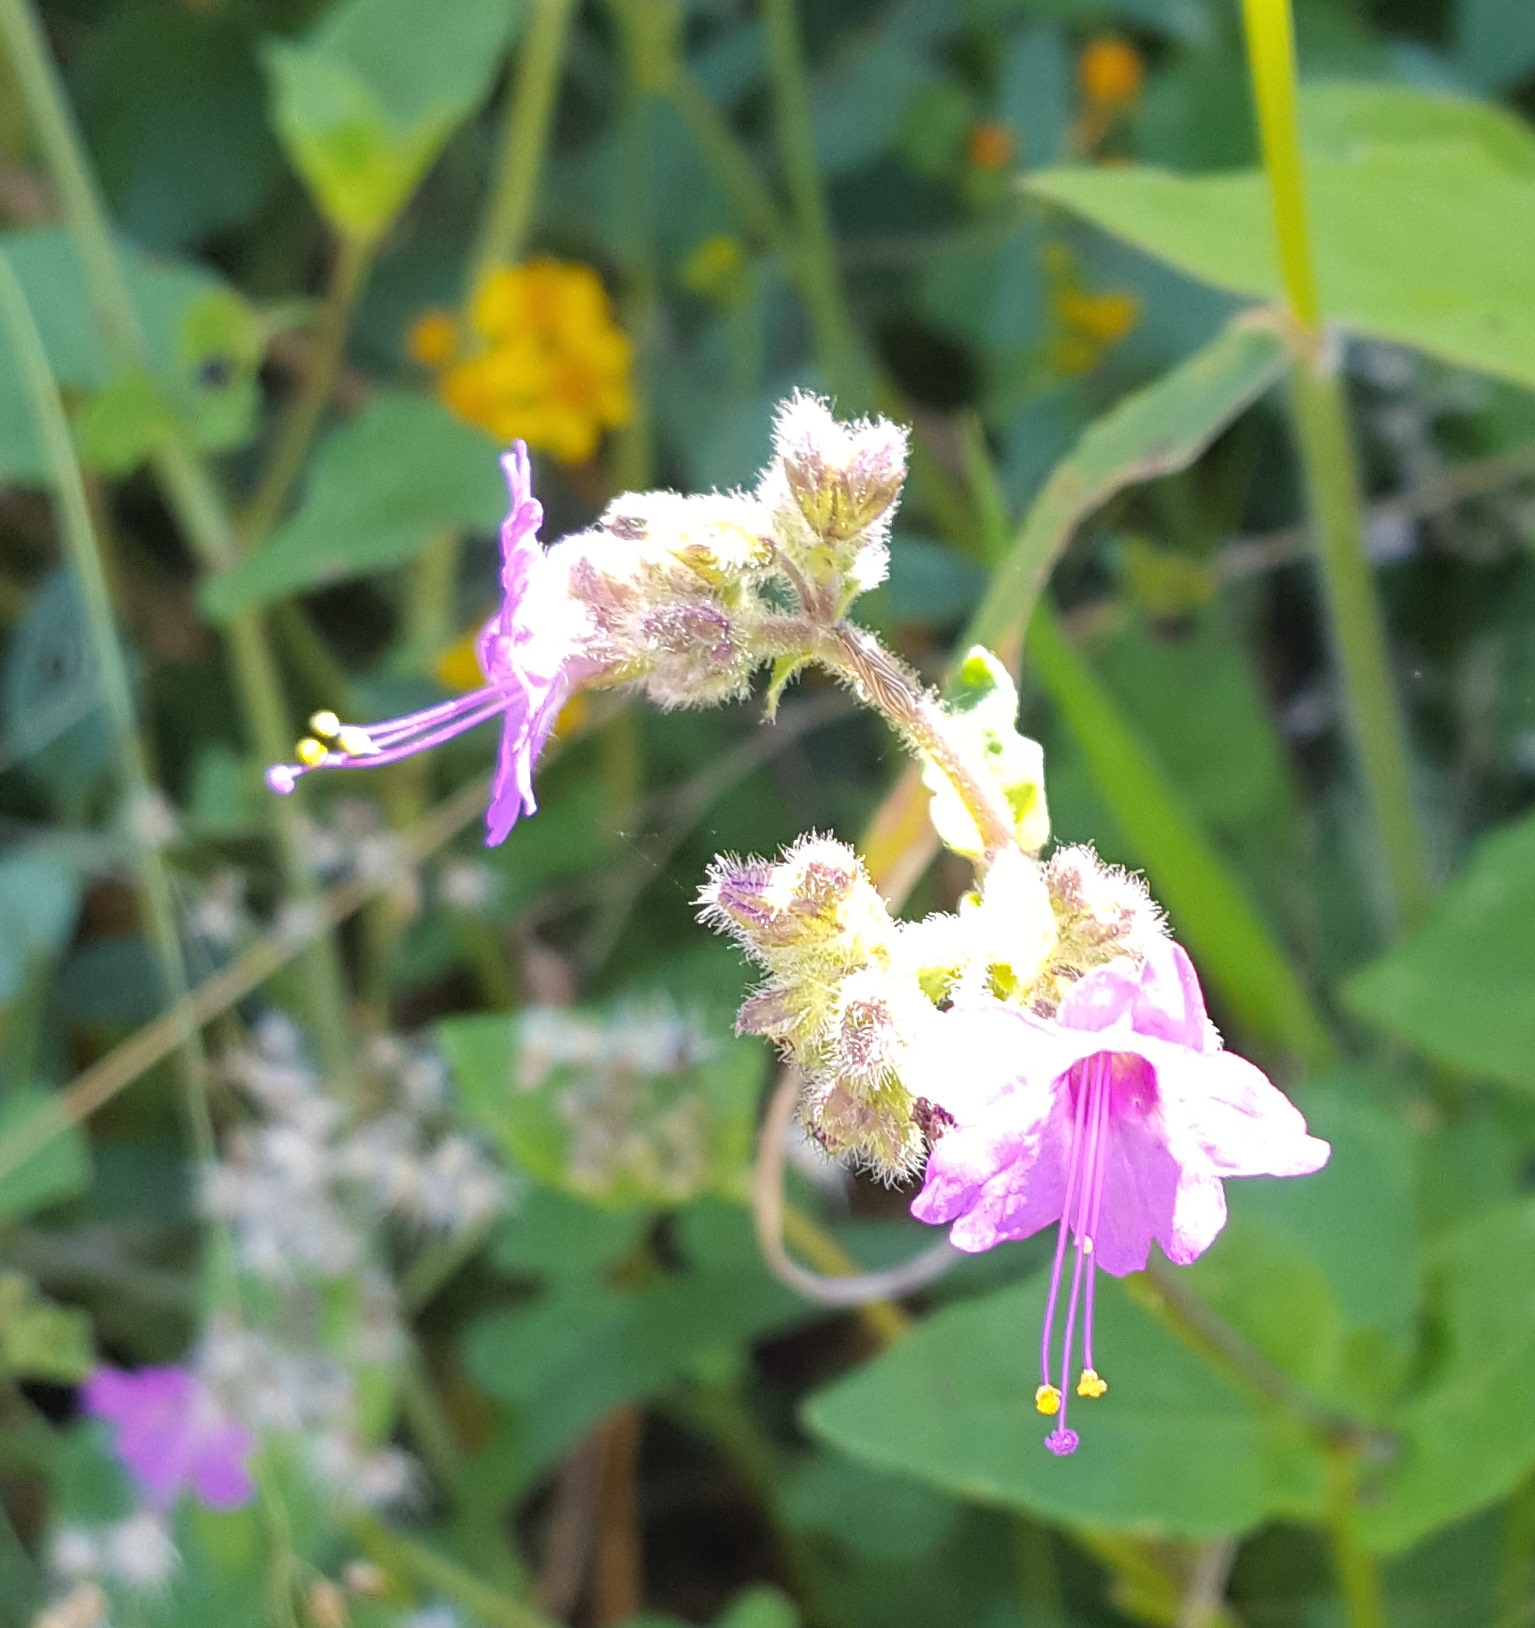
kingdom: Plantae
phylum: Tracheophyta
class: Magnoliopsida
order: Caryophyllales
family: Nyctaginaceae
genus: Mirabilis
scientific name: Mirabilis viscosa
